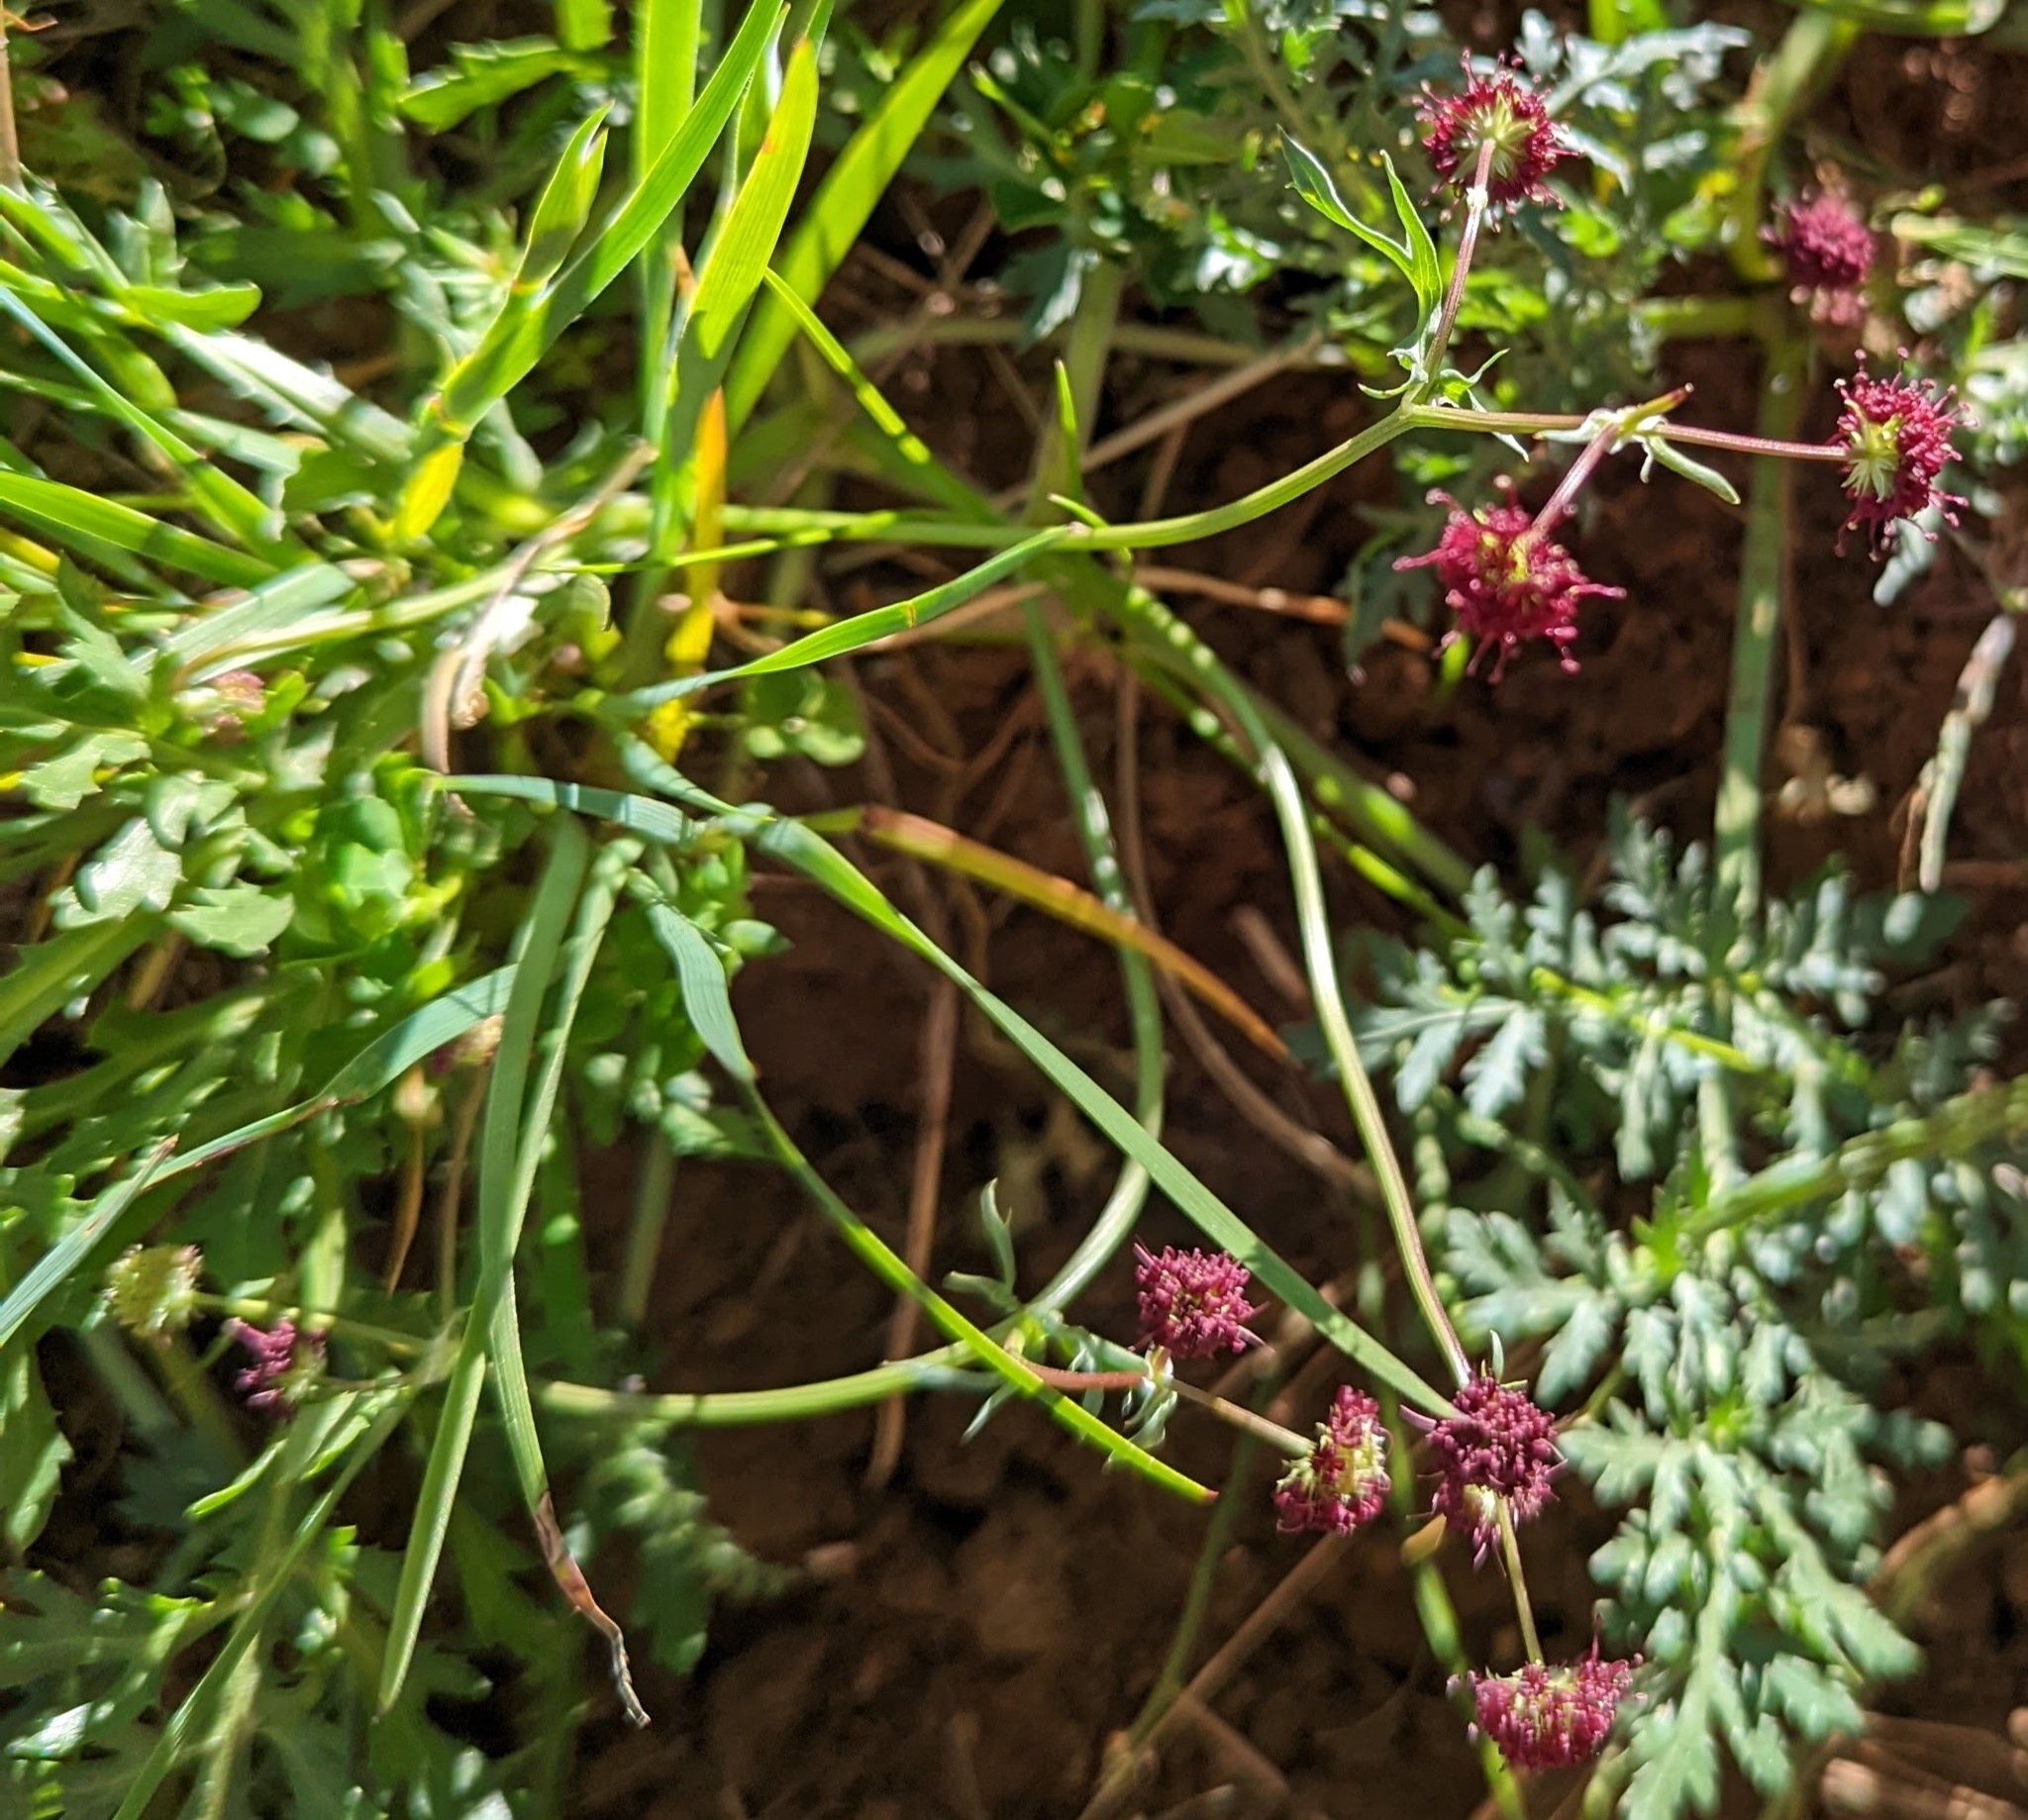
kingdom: Plantae
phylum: Tracheophyta
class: Magnoliopsida
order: Apiales
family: Apiaceae
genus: Sanicula
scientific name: Sanicula bipinnatifida
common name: Shoe-buttons
